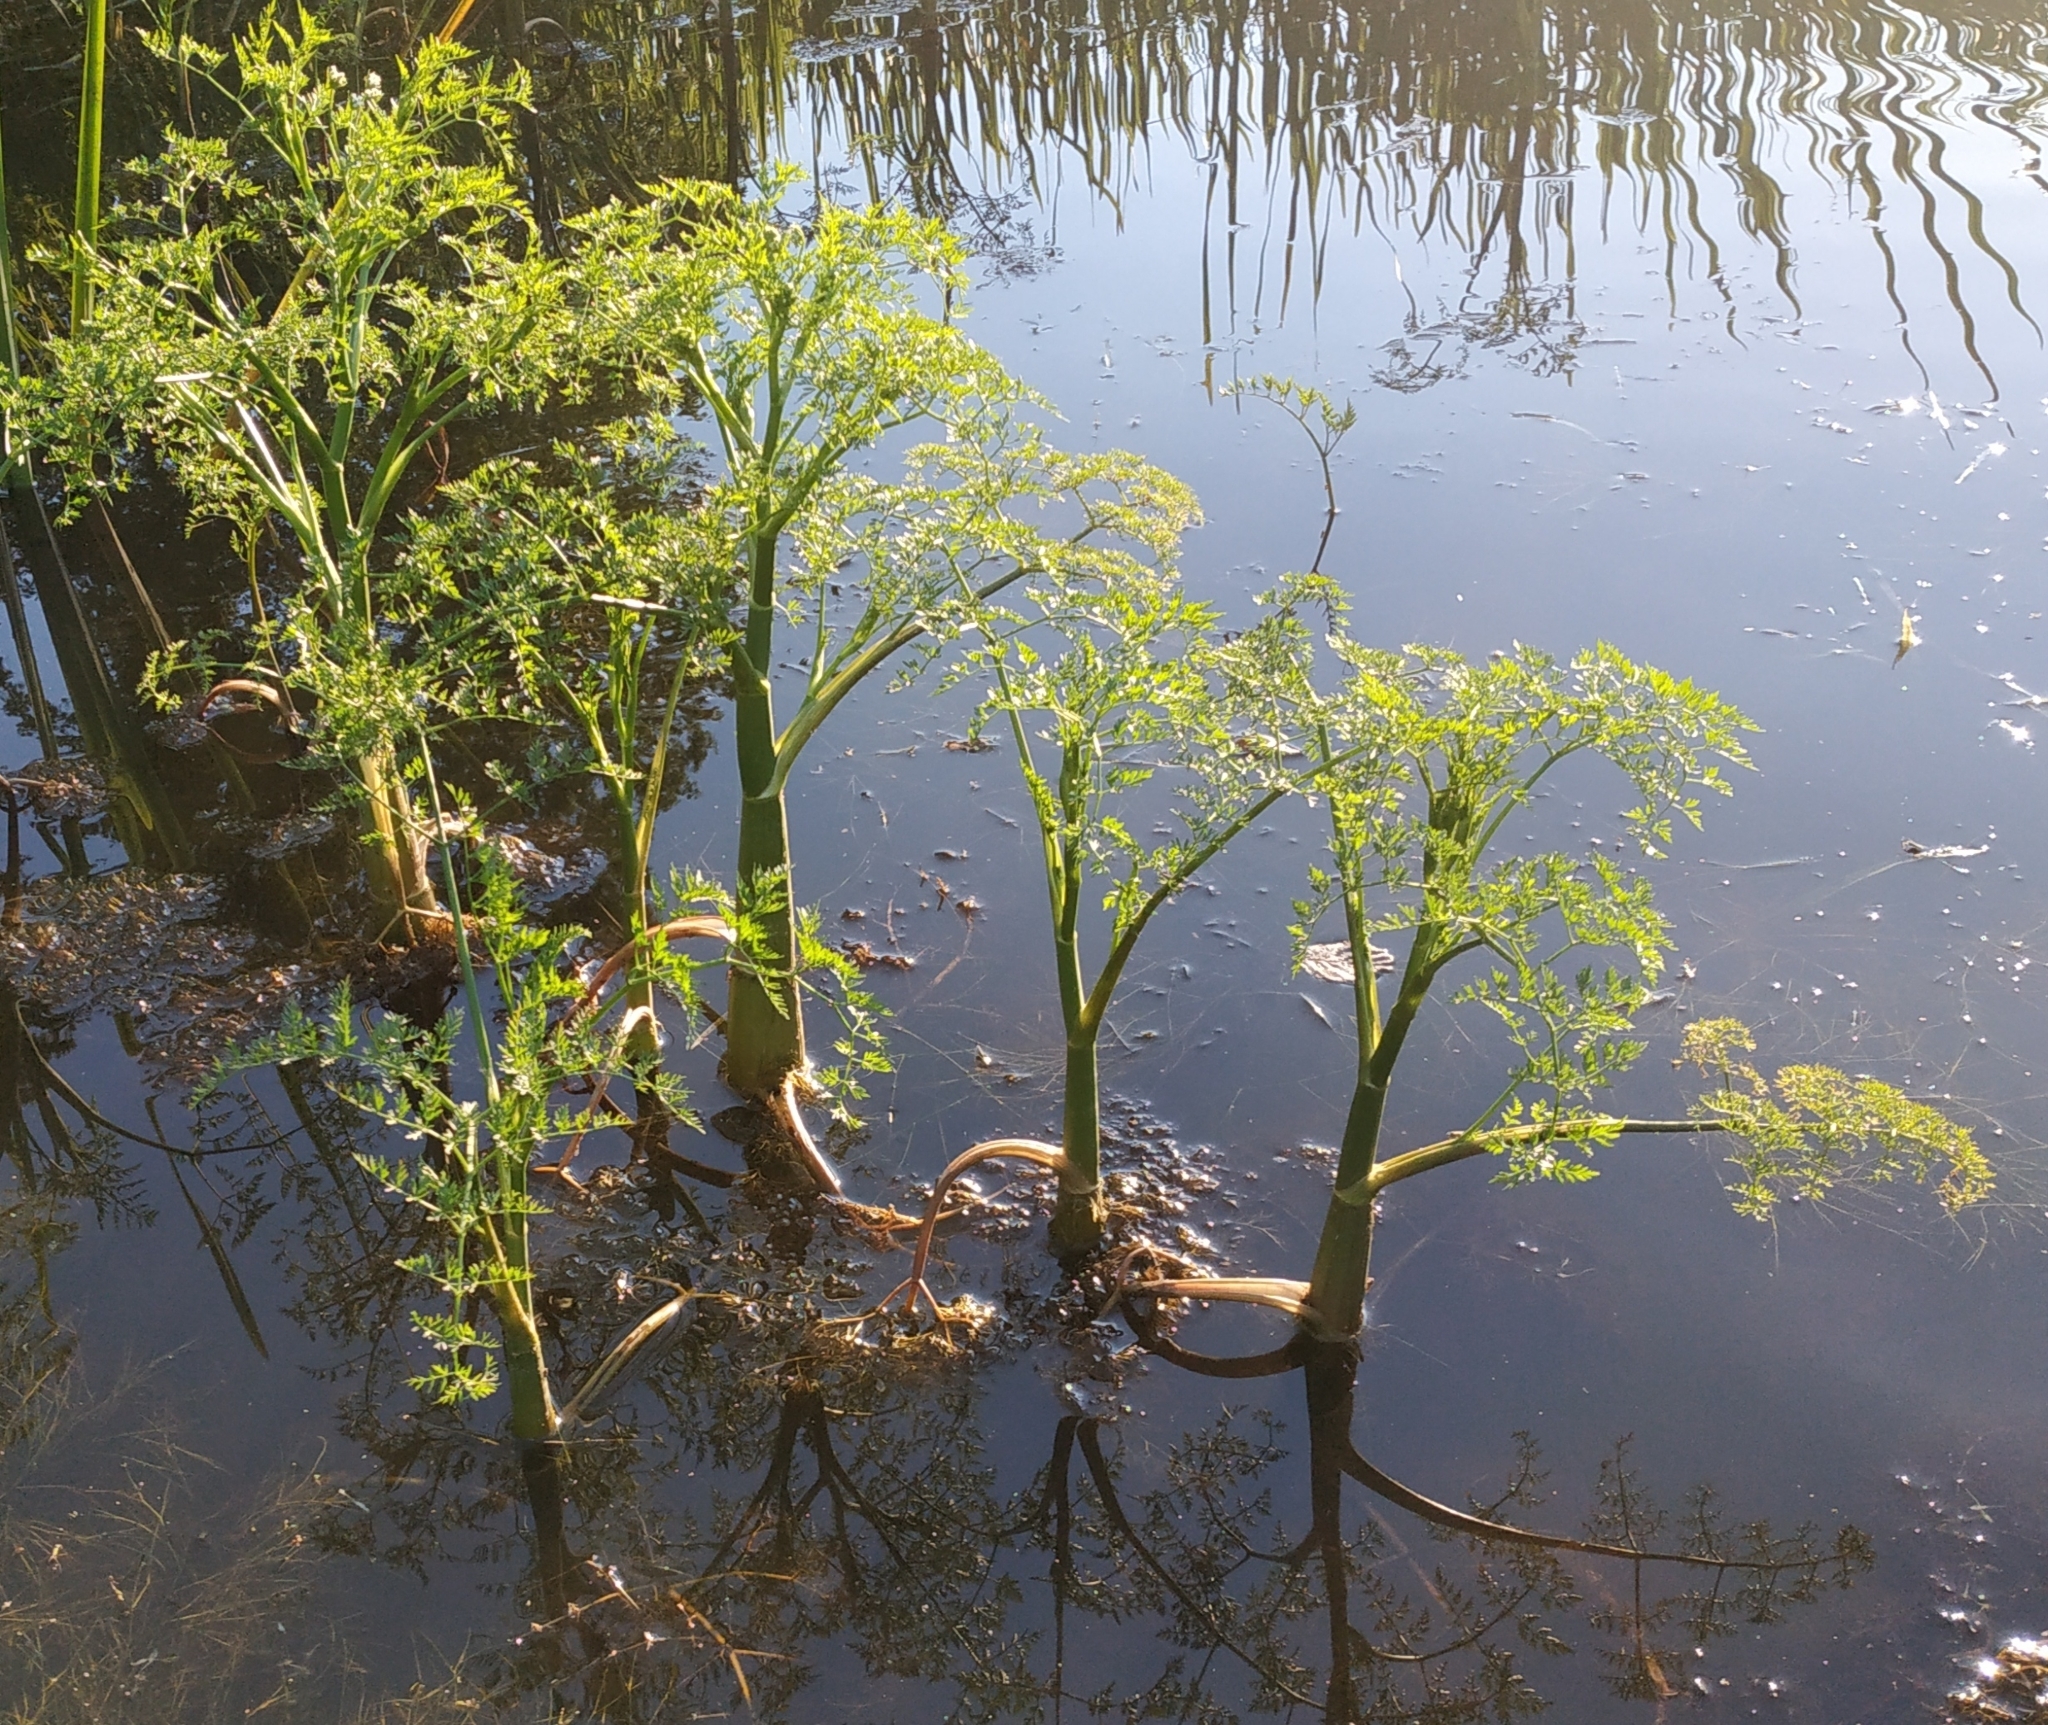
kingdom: Plantae
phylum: Tracheophyta
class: Magnoliopsida
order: Apiales
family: Apiaceae
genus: Oenanthe
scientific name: Oenanthe aquatica
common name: Fine-leaved water-dropwort
